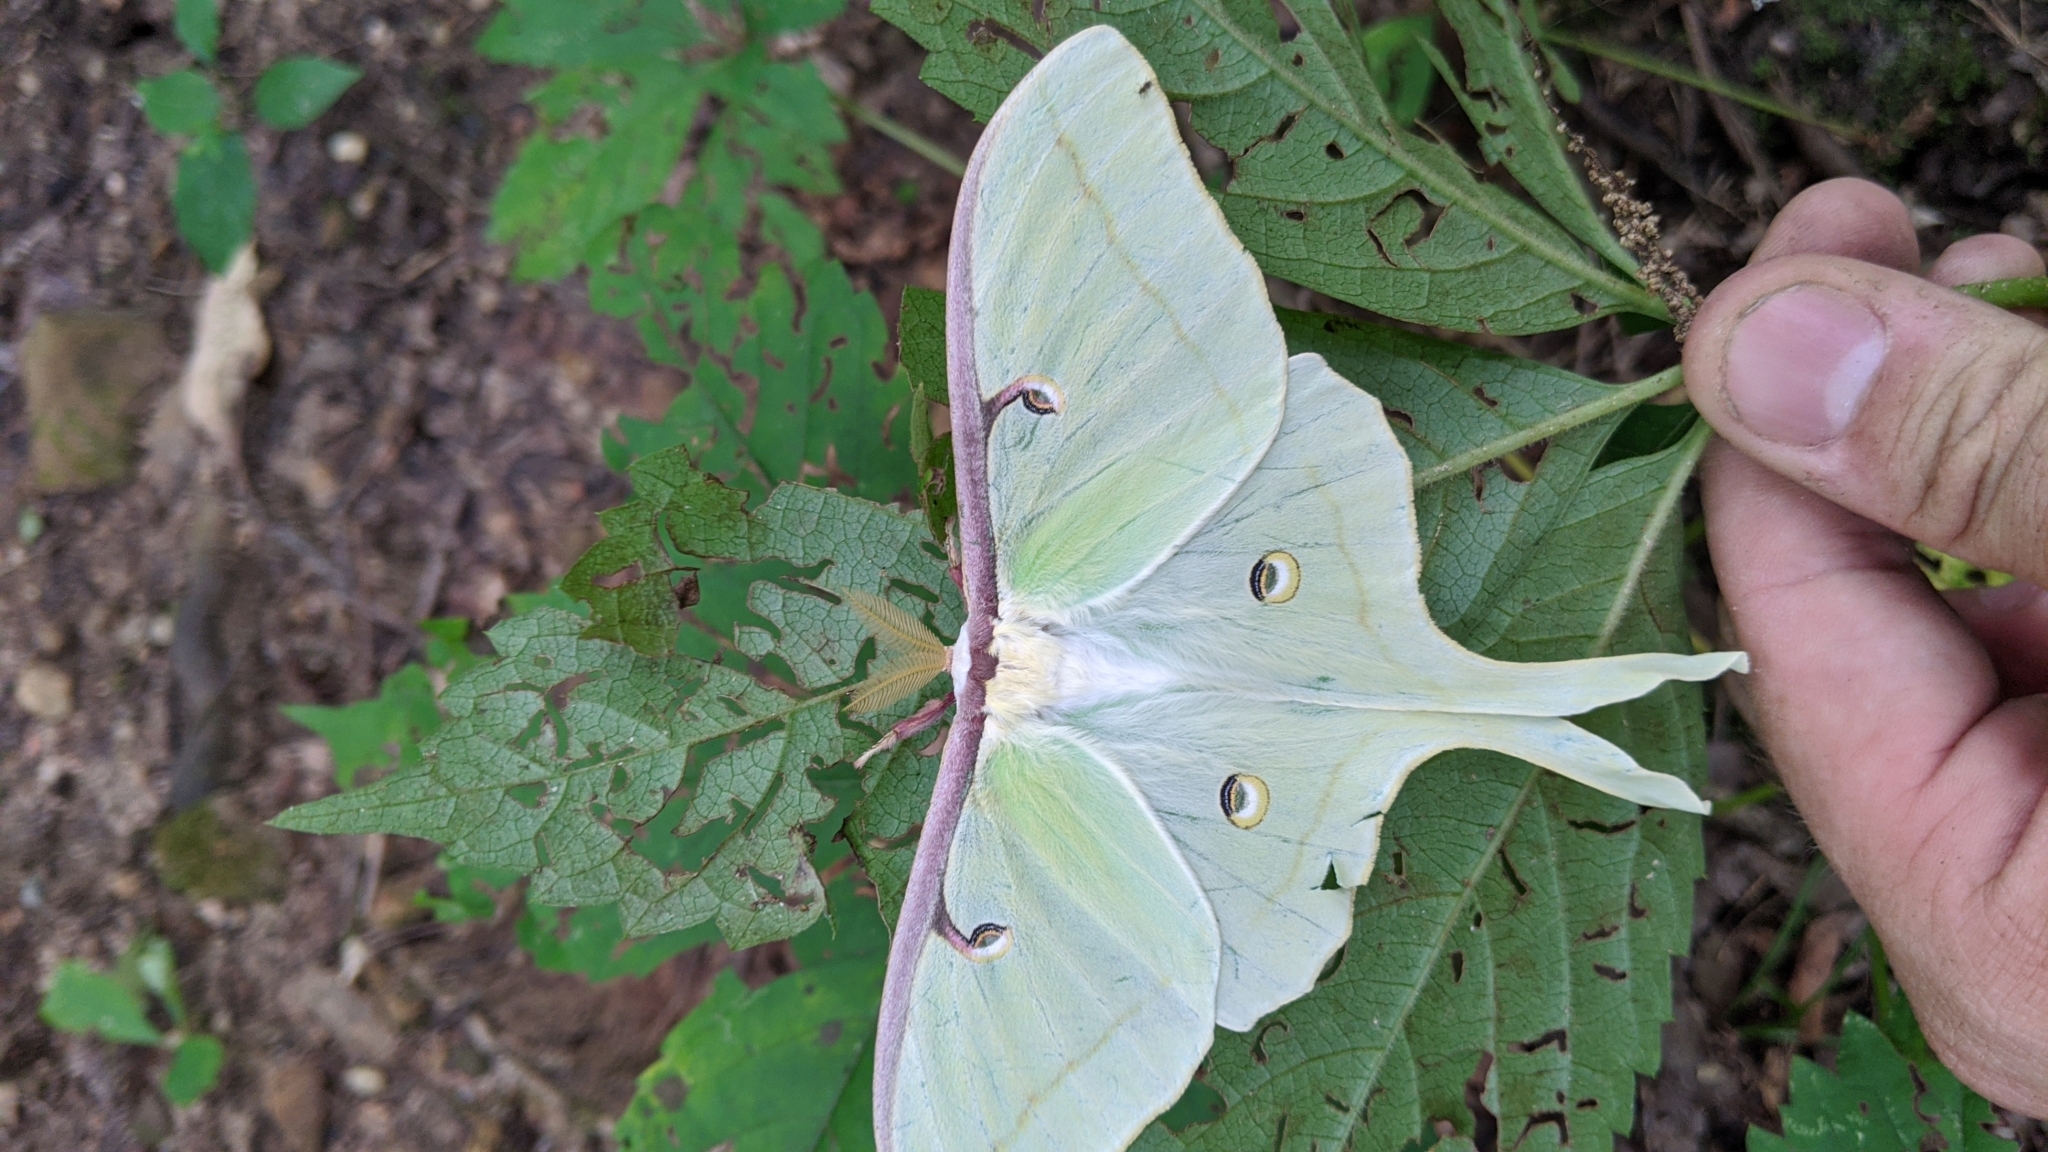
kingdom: Animalia
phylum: Arthropoda
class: Insecta
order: Lepidoptera
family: Saturniidae
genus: Actias
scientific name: Actias luna
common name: Luna moth
